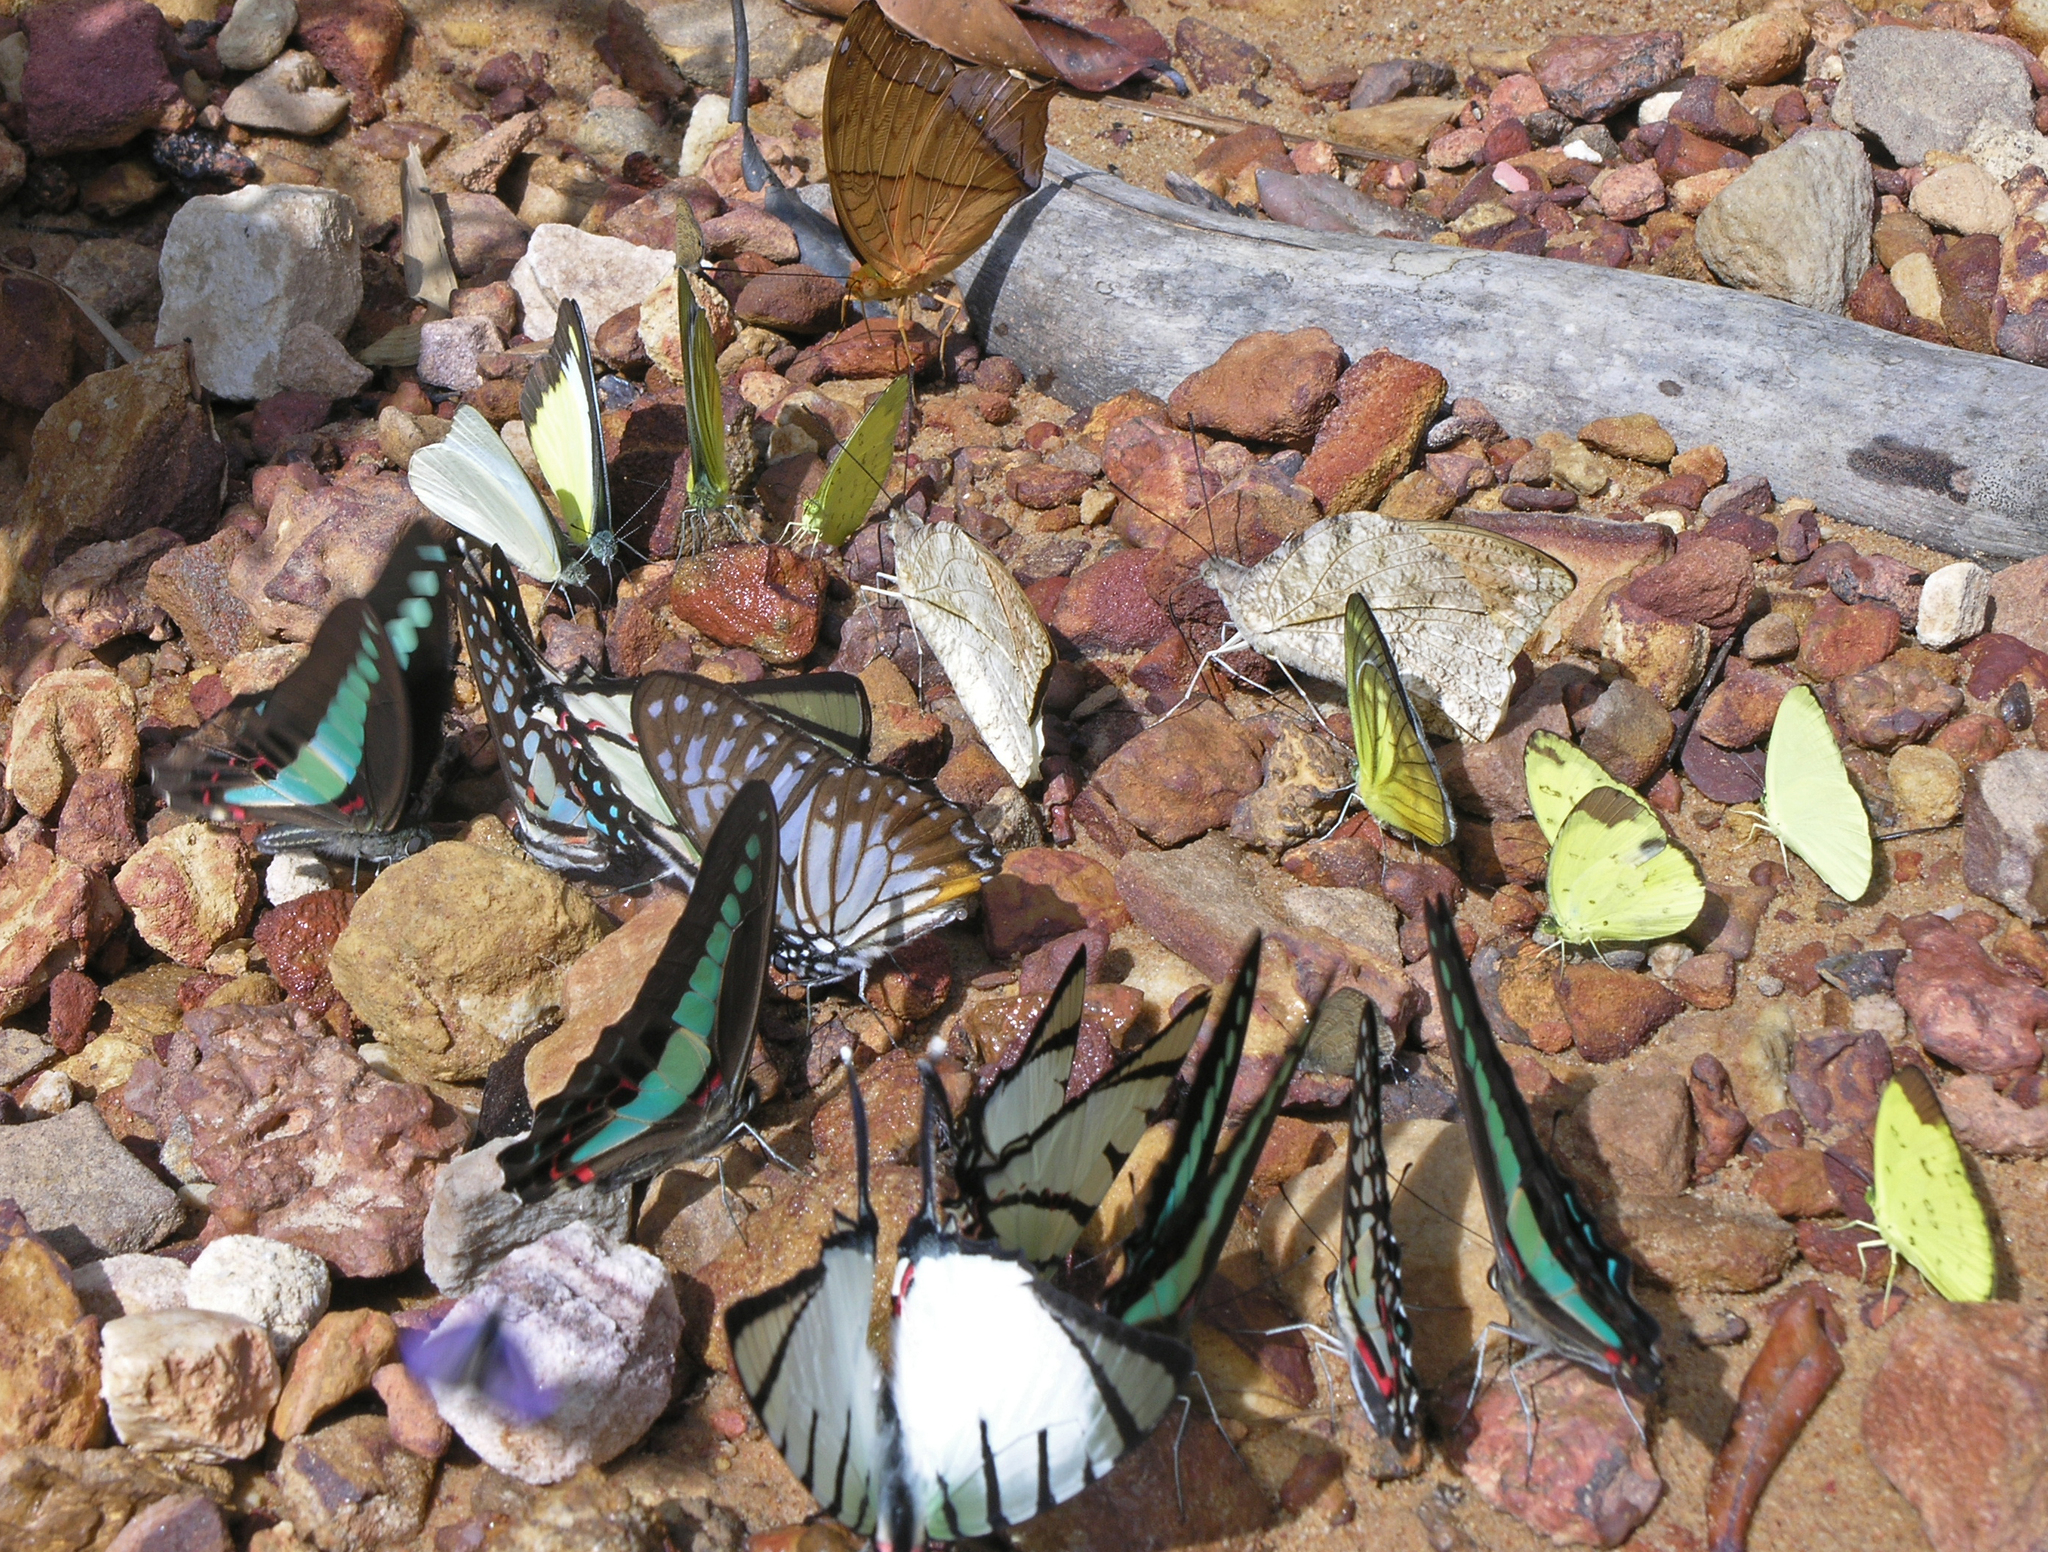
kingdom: Animalia
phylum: Arthropoda
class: Insecta
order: Lepidoptera
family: Papilionidae
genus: Graphium
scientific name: Graphium xenocles
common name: Great zebra
